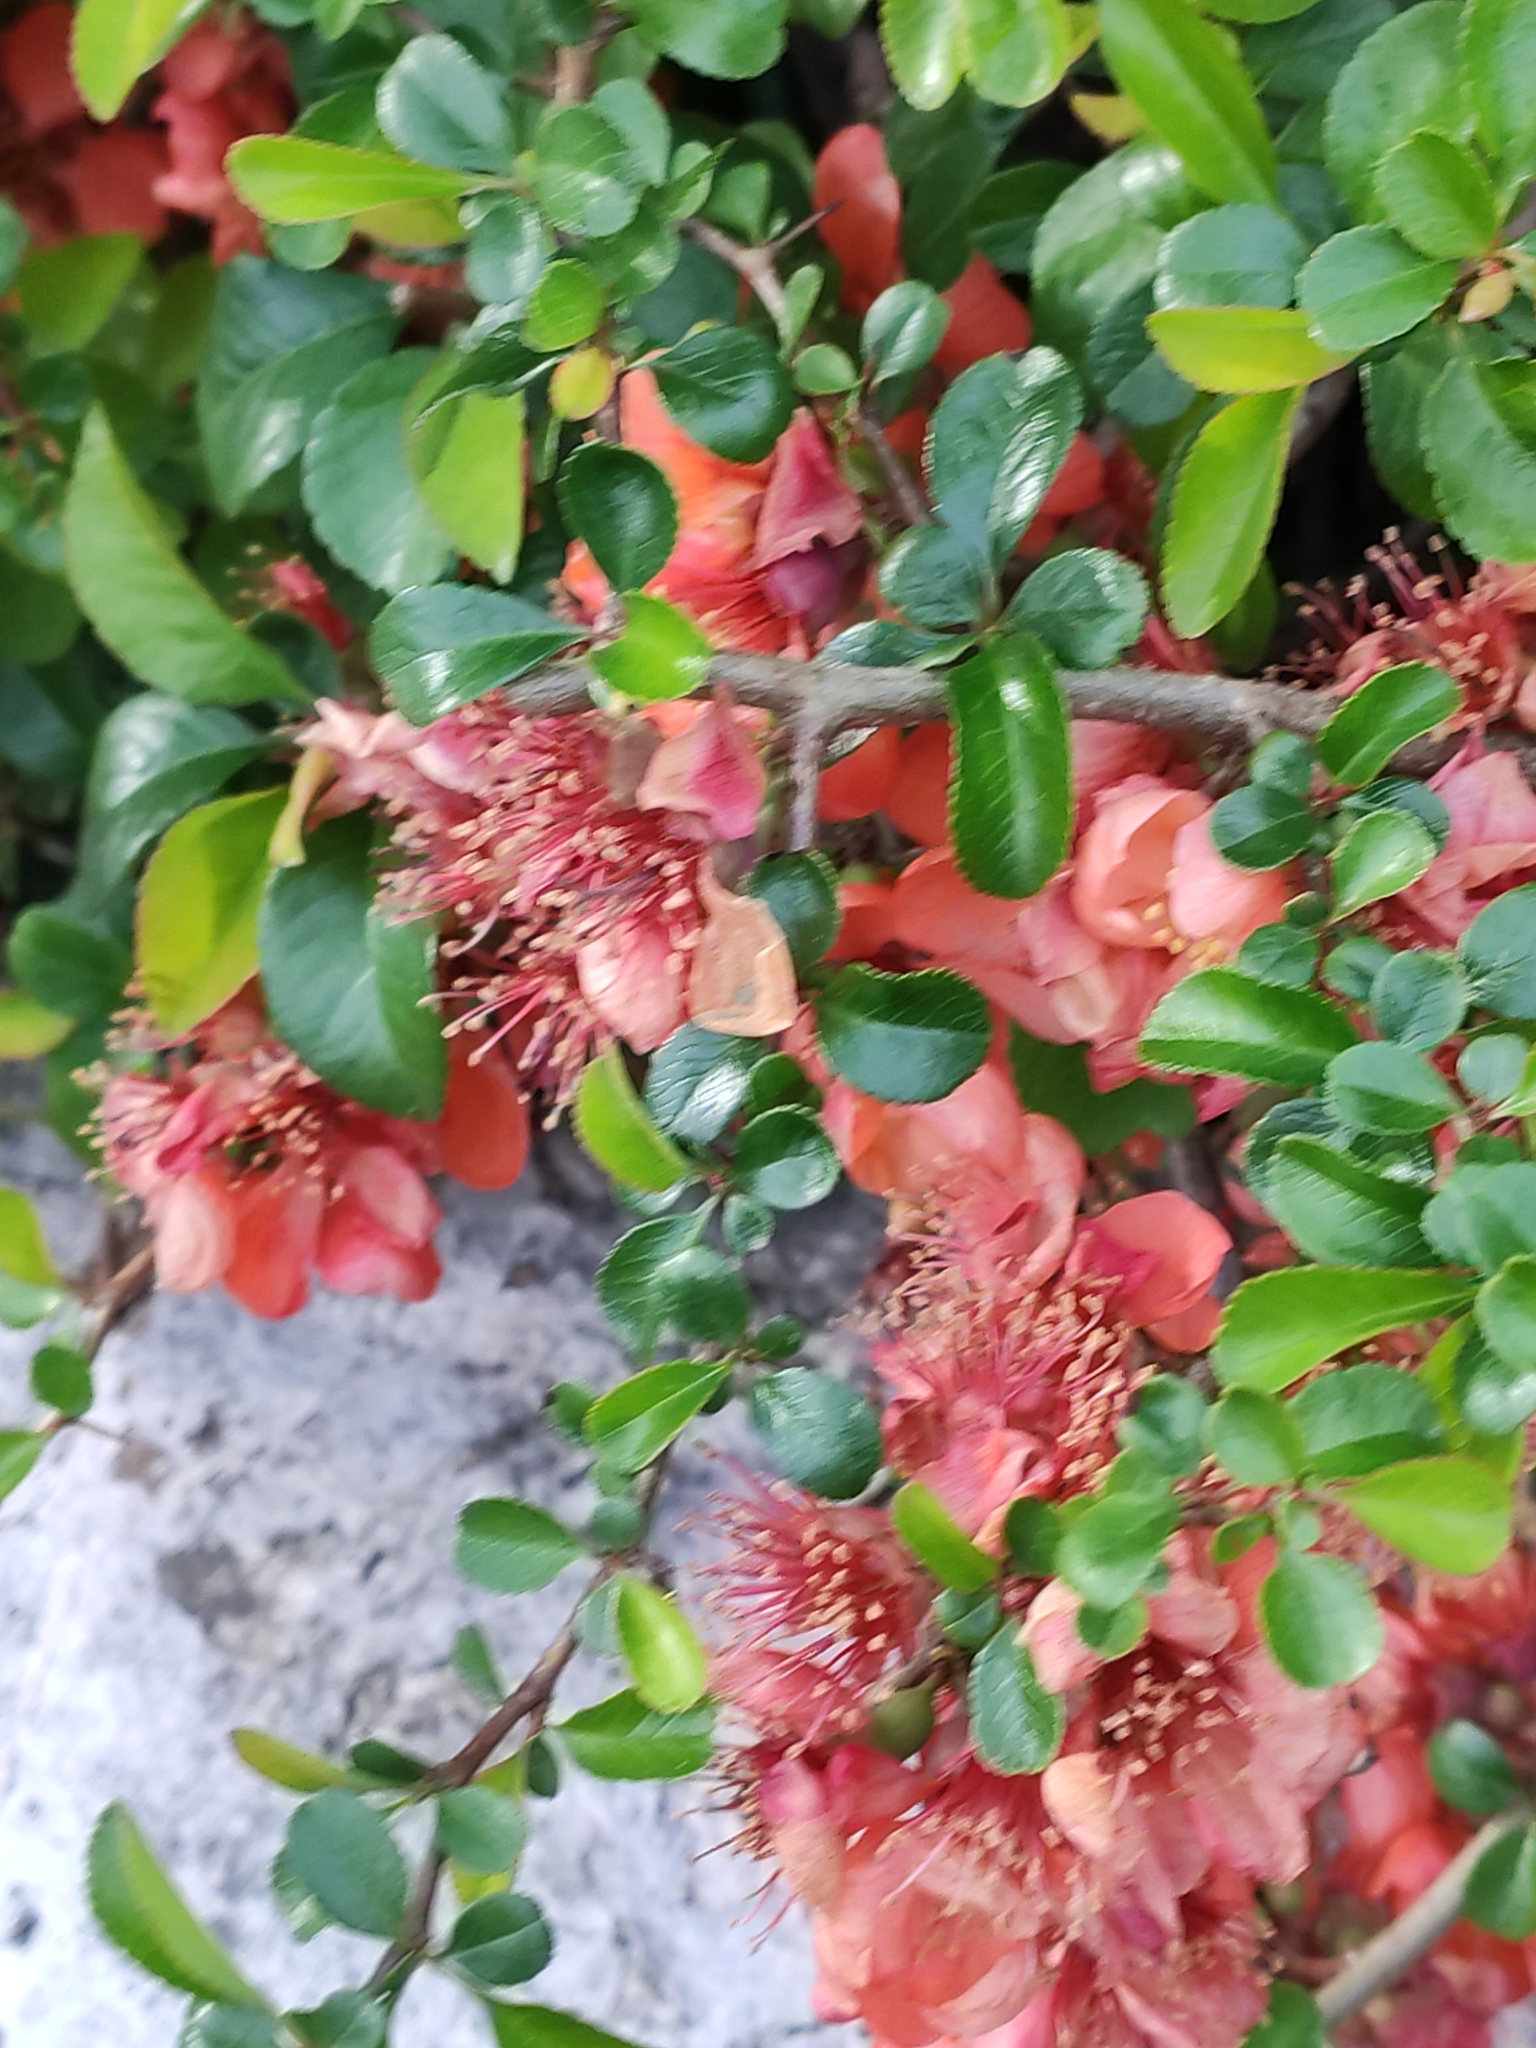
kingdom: Plantae
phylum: Tracheophyta
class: Magnoliopsida
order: Rosales
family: Rosaceae
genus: Chaenomeles
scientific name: Chaenomeles japonica
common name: Japanese quince
